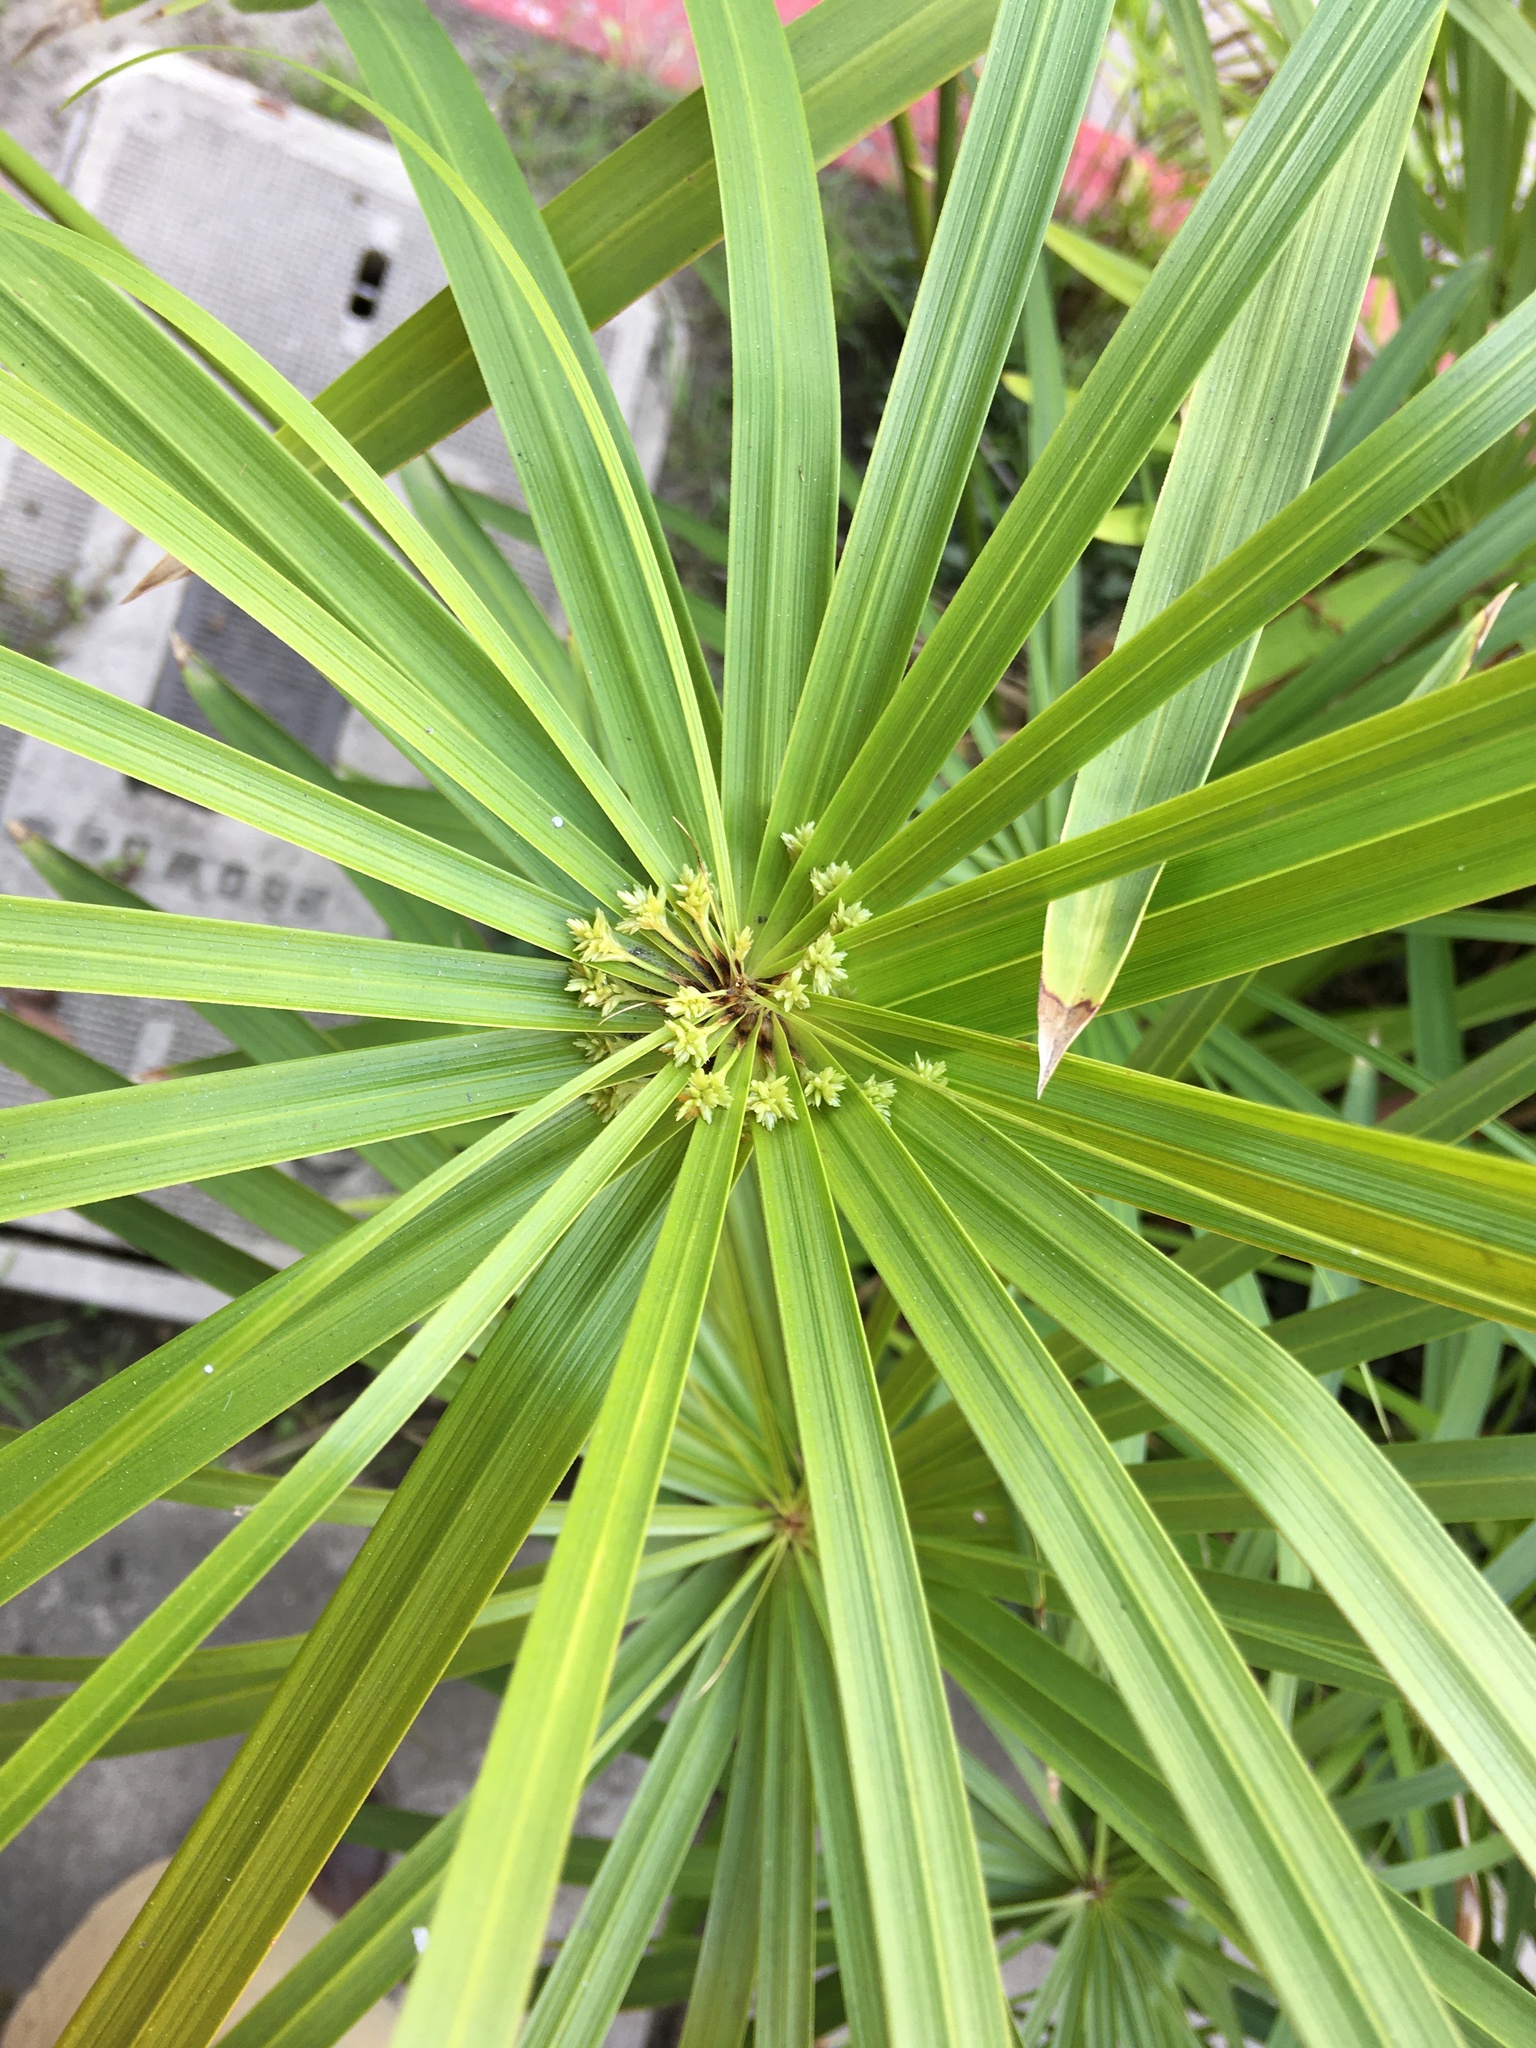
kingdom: Plantae
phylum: Tracheophyta
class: Liliopsida
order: Poales
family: Cyperaceae
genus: Cyperus
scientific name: Cyperus alternifolius
